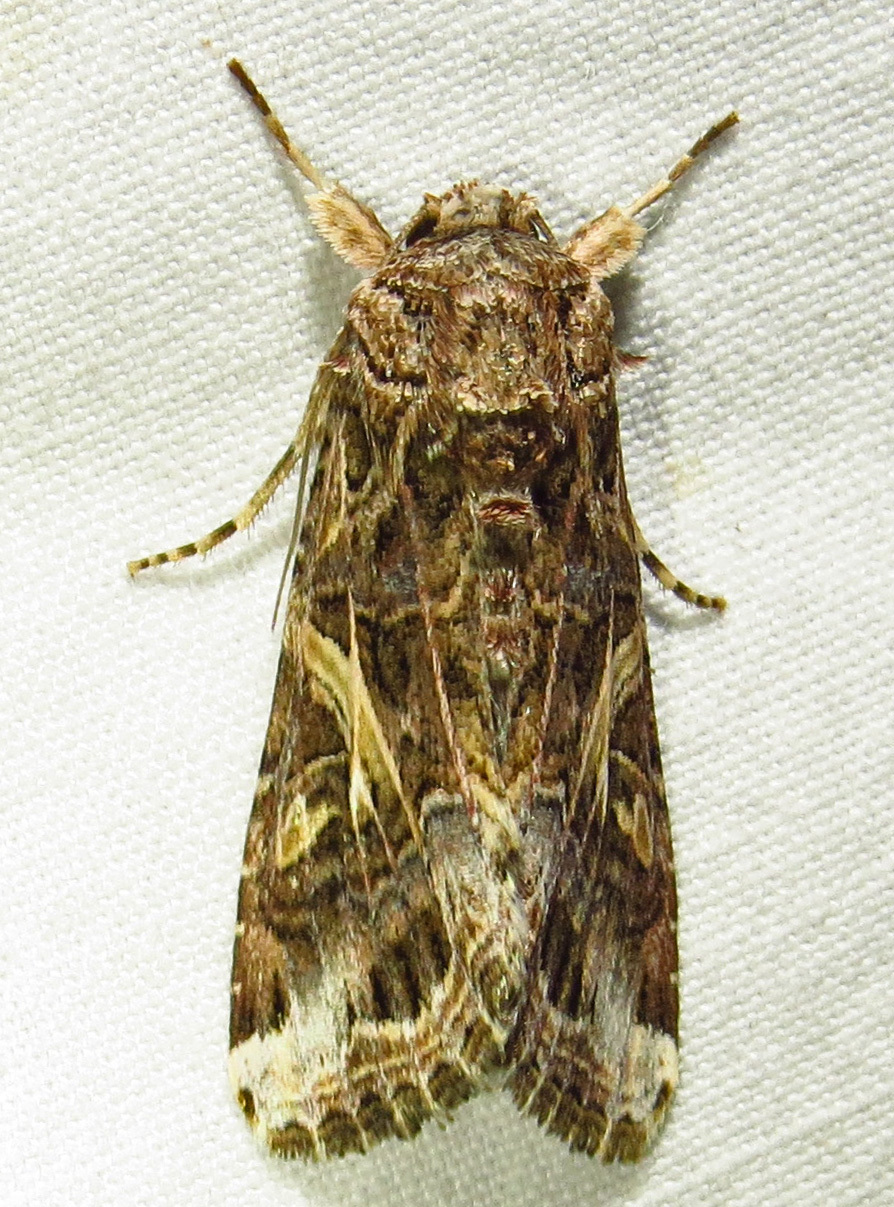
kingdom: Animalia
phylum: Arthropoda
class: Insecta
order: Lepidoptera
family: Noctuidae
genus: Spodoptera
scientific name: Spodoptera ornithogalli
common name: Yellow-striped armyworm
